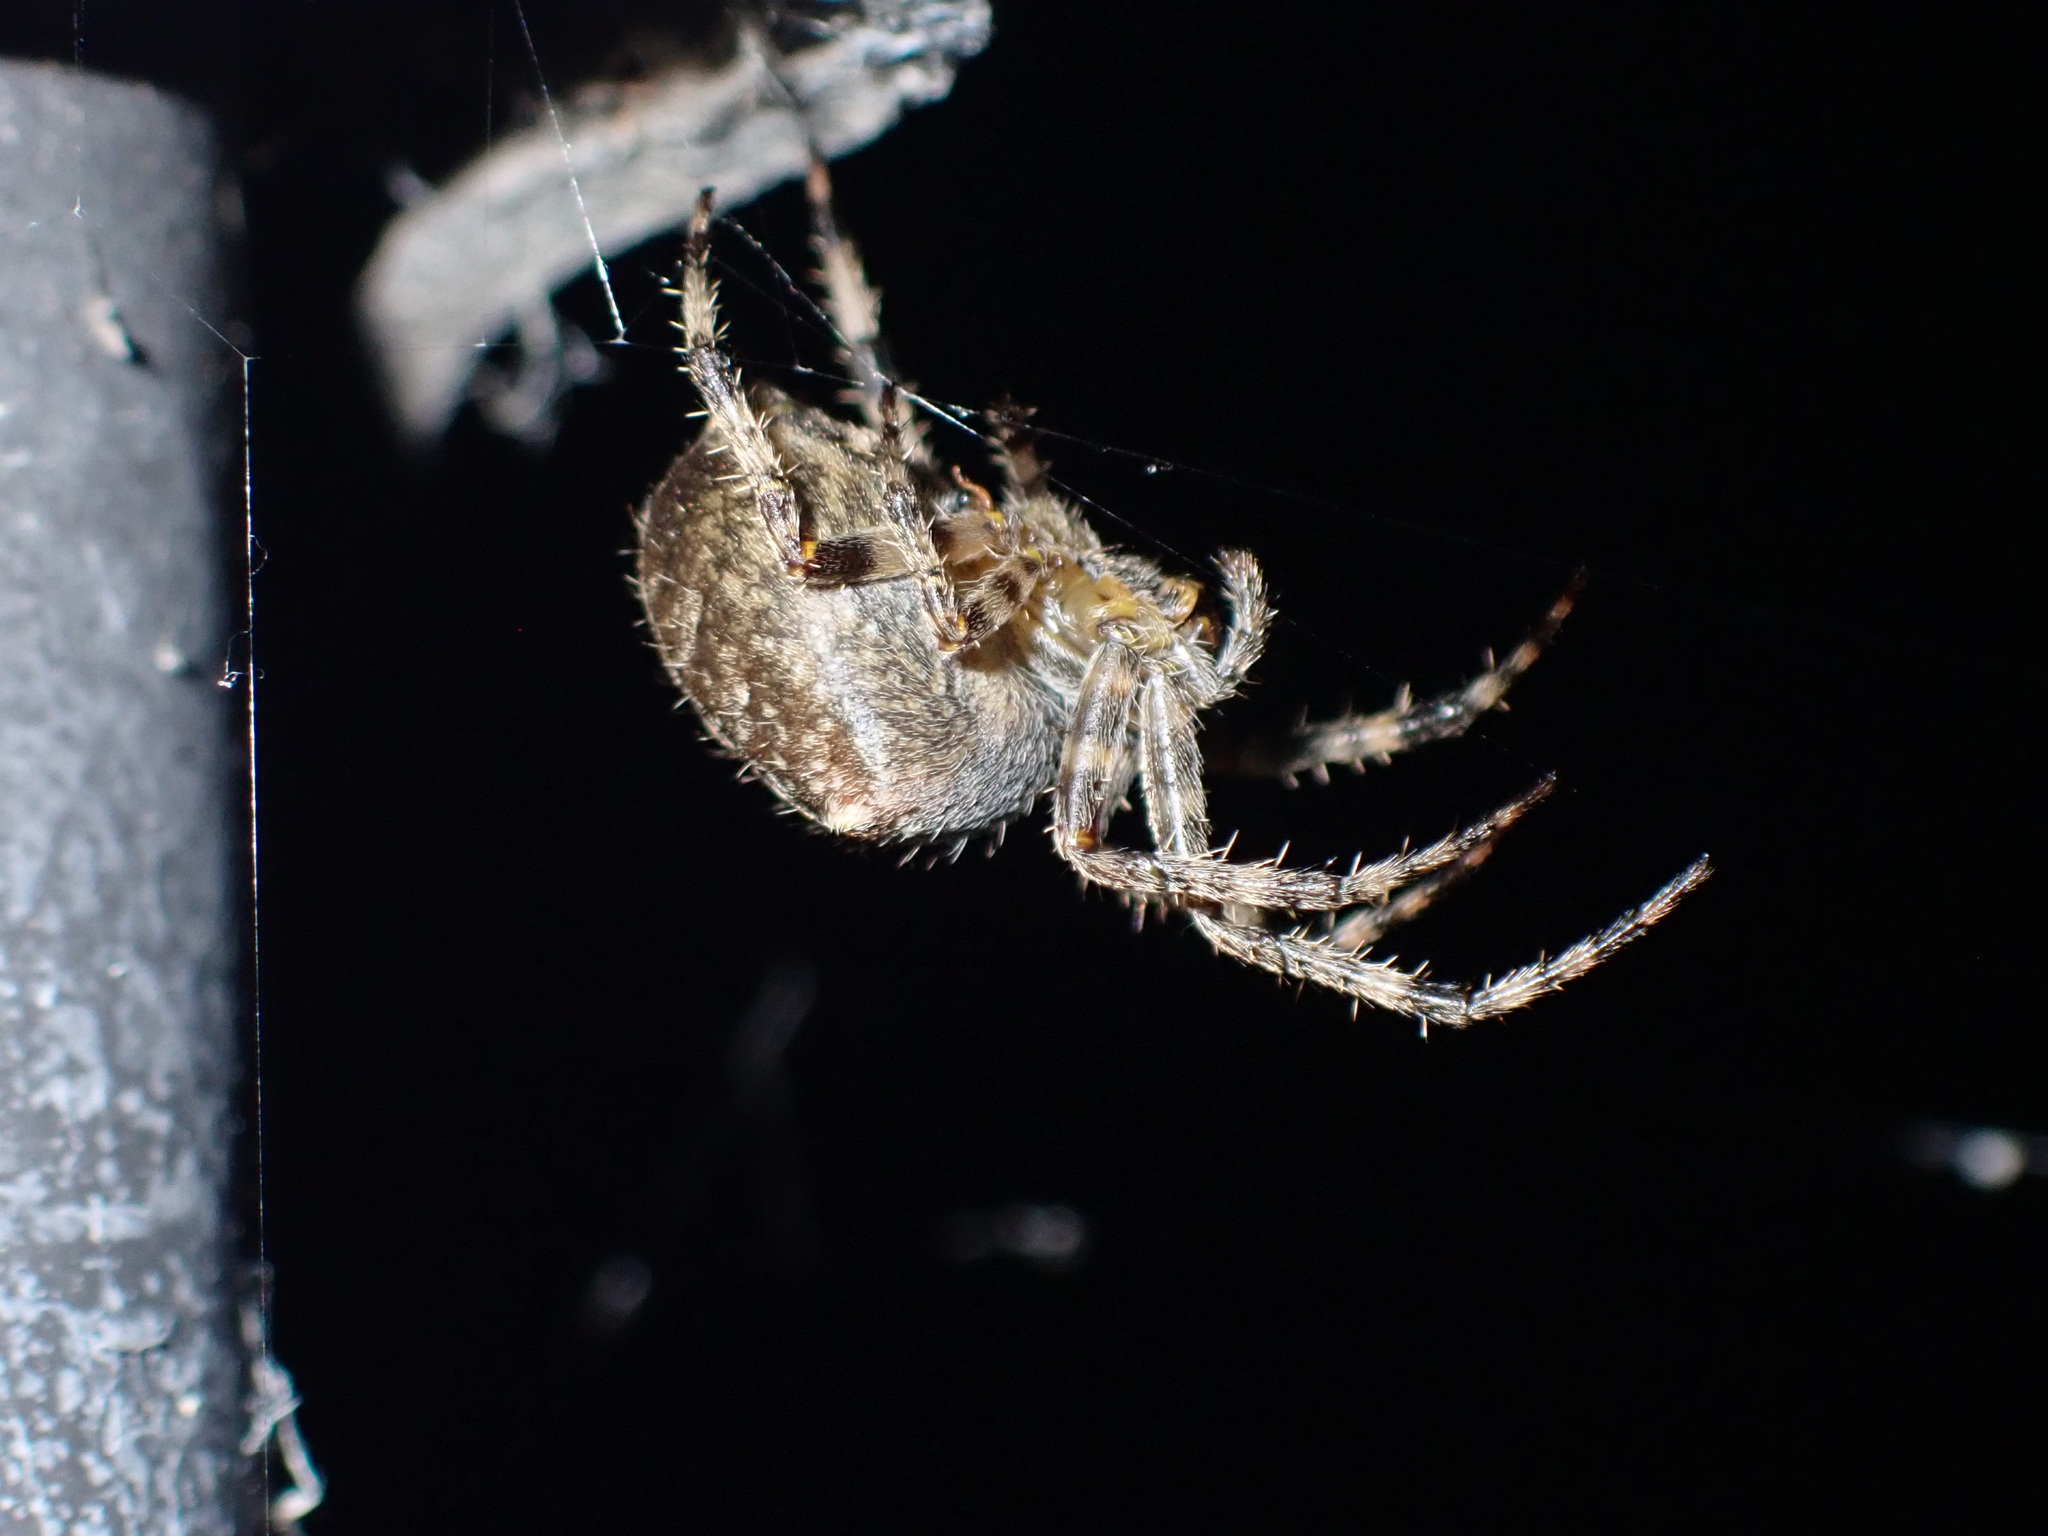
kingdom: Animalia
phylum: Arthropoda
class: Arachnida
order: Araneae
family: Araneidae
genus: Araneus
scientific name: Araneus diadematus
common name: Cross orbweaver
